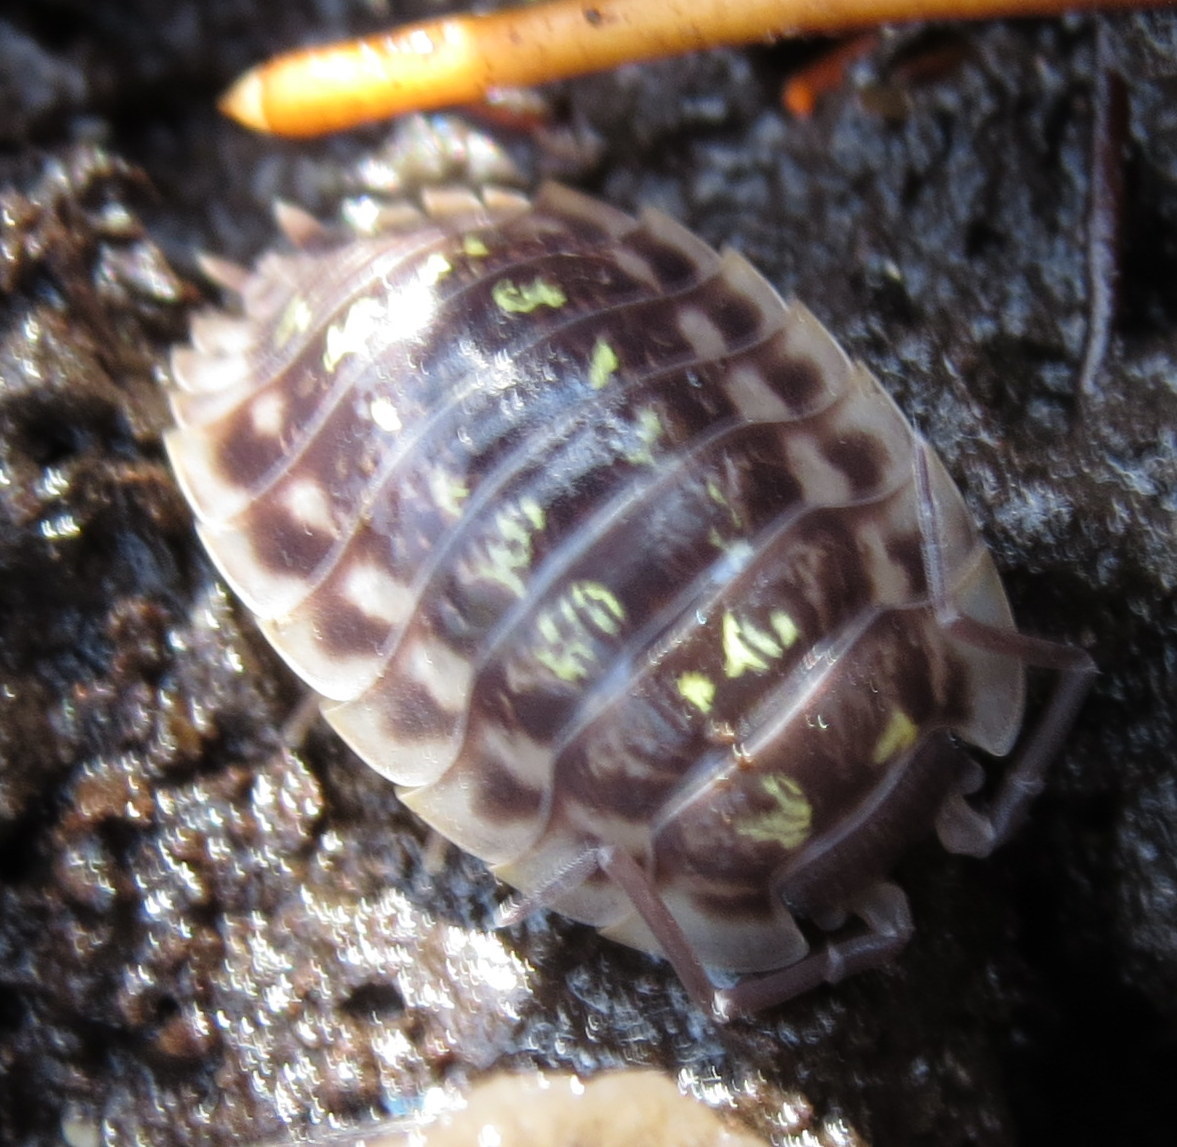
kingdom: Animalia
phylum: Arthropoda
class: Malacostraca
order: Isopoda
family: Oniscidae
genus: Oniscus
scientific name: Oniscus asellus
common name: Common shiny woodlouse
